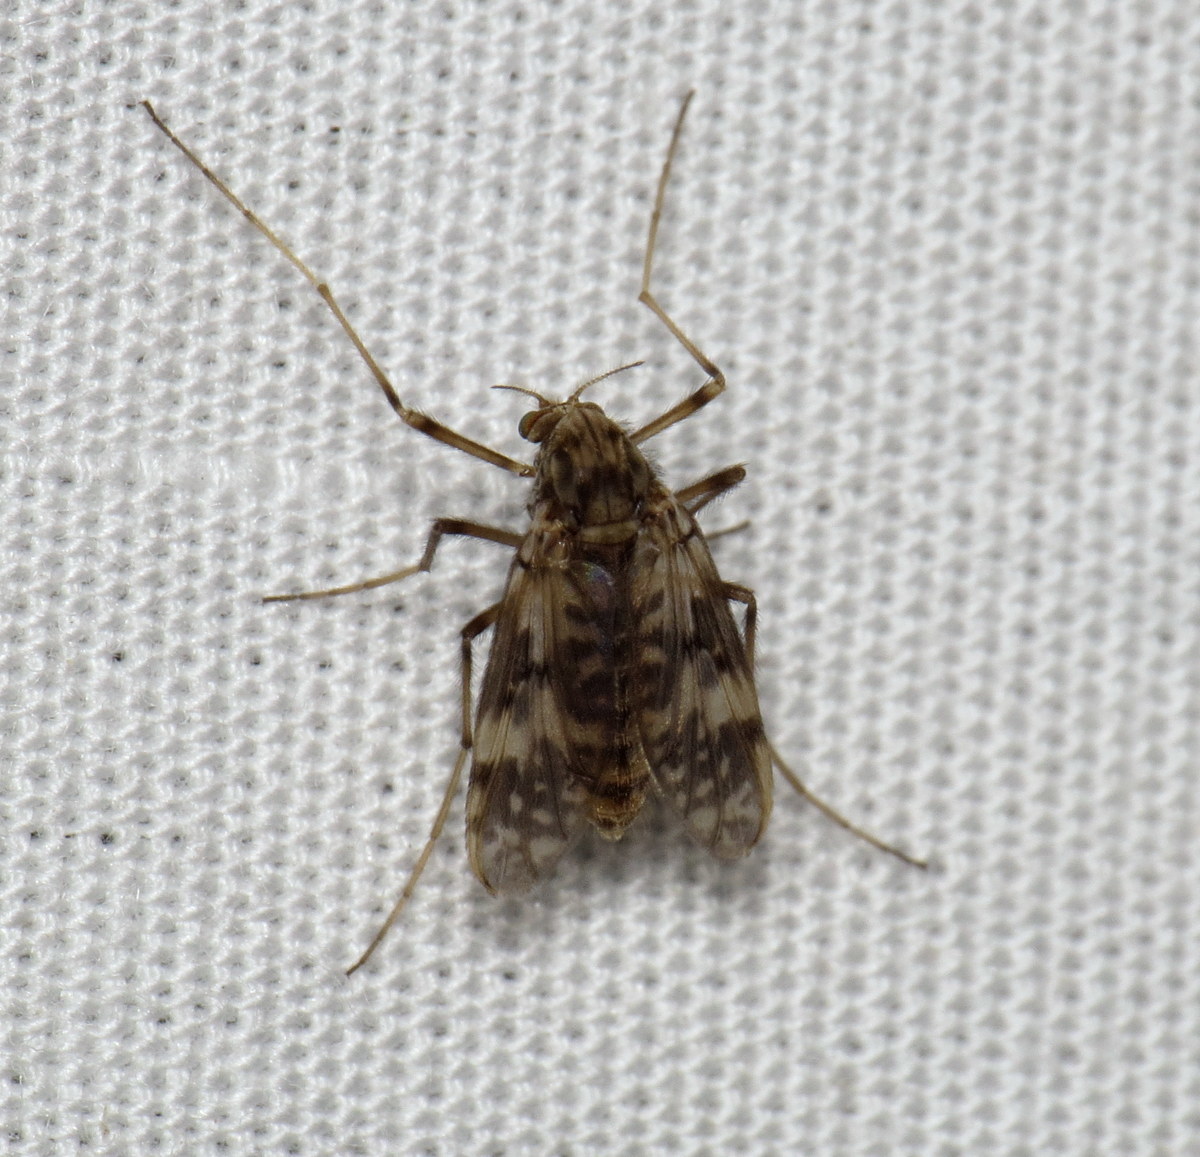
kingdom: Animalia
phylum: Arthropoda
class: Insecta
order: Diptera
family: Chironomidae
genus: Psectrotanypus
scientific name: Psectrotanypus dyari
